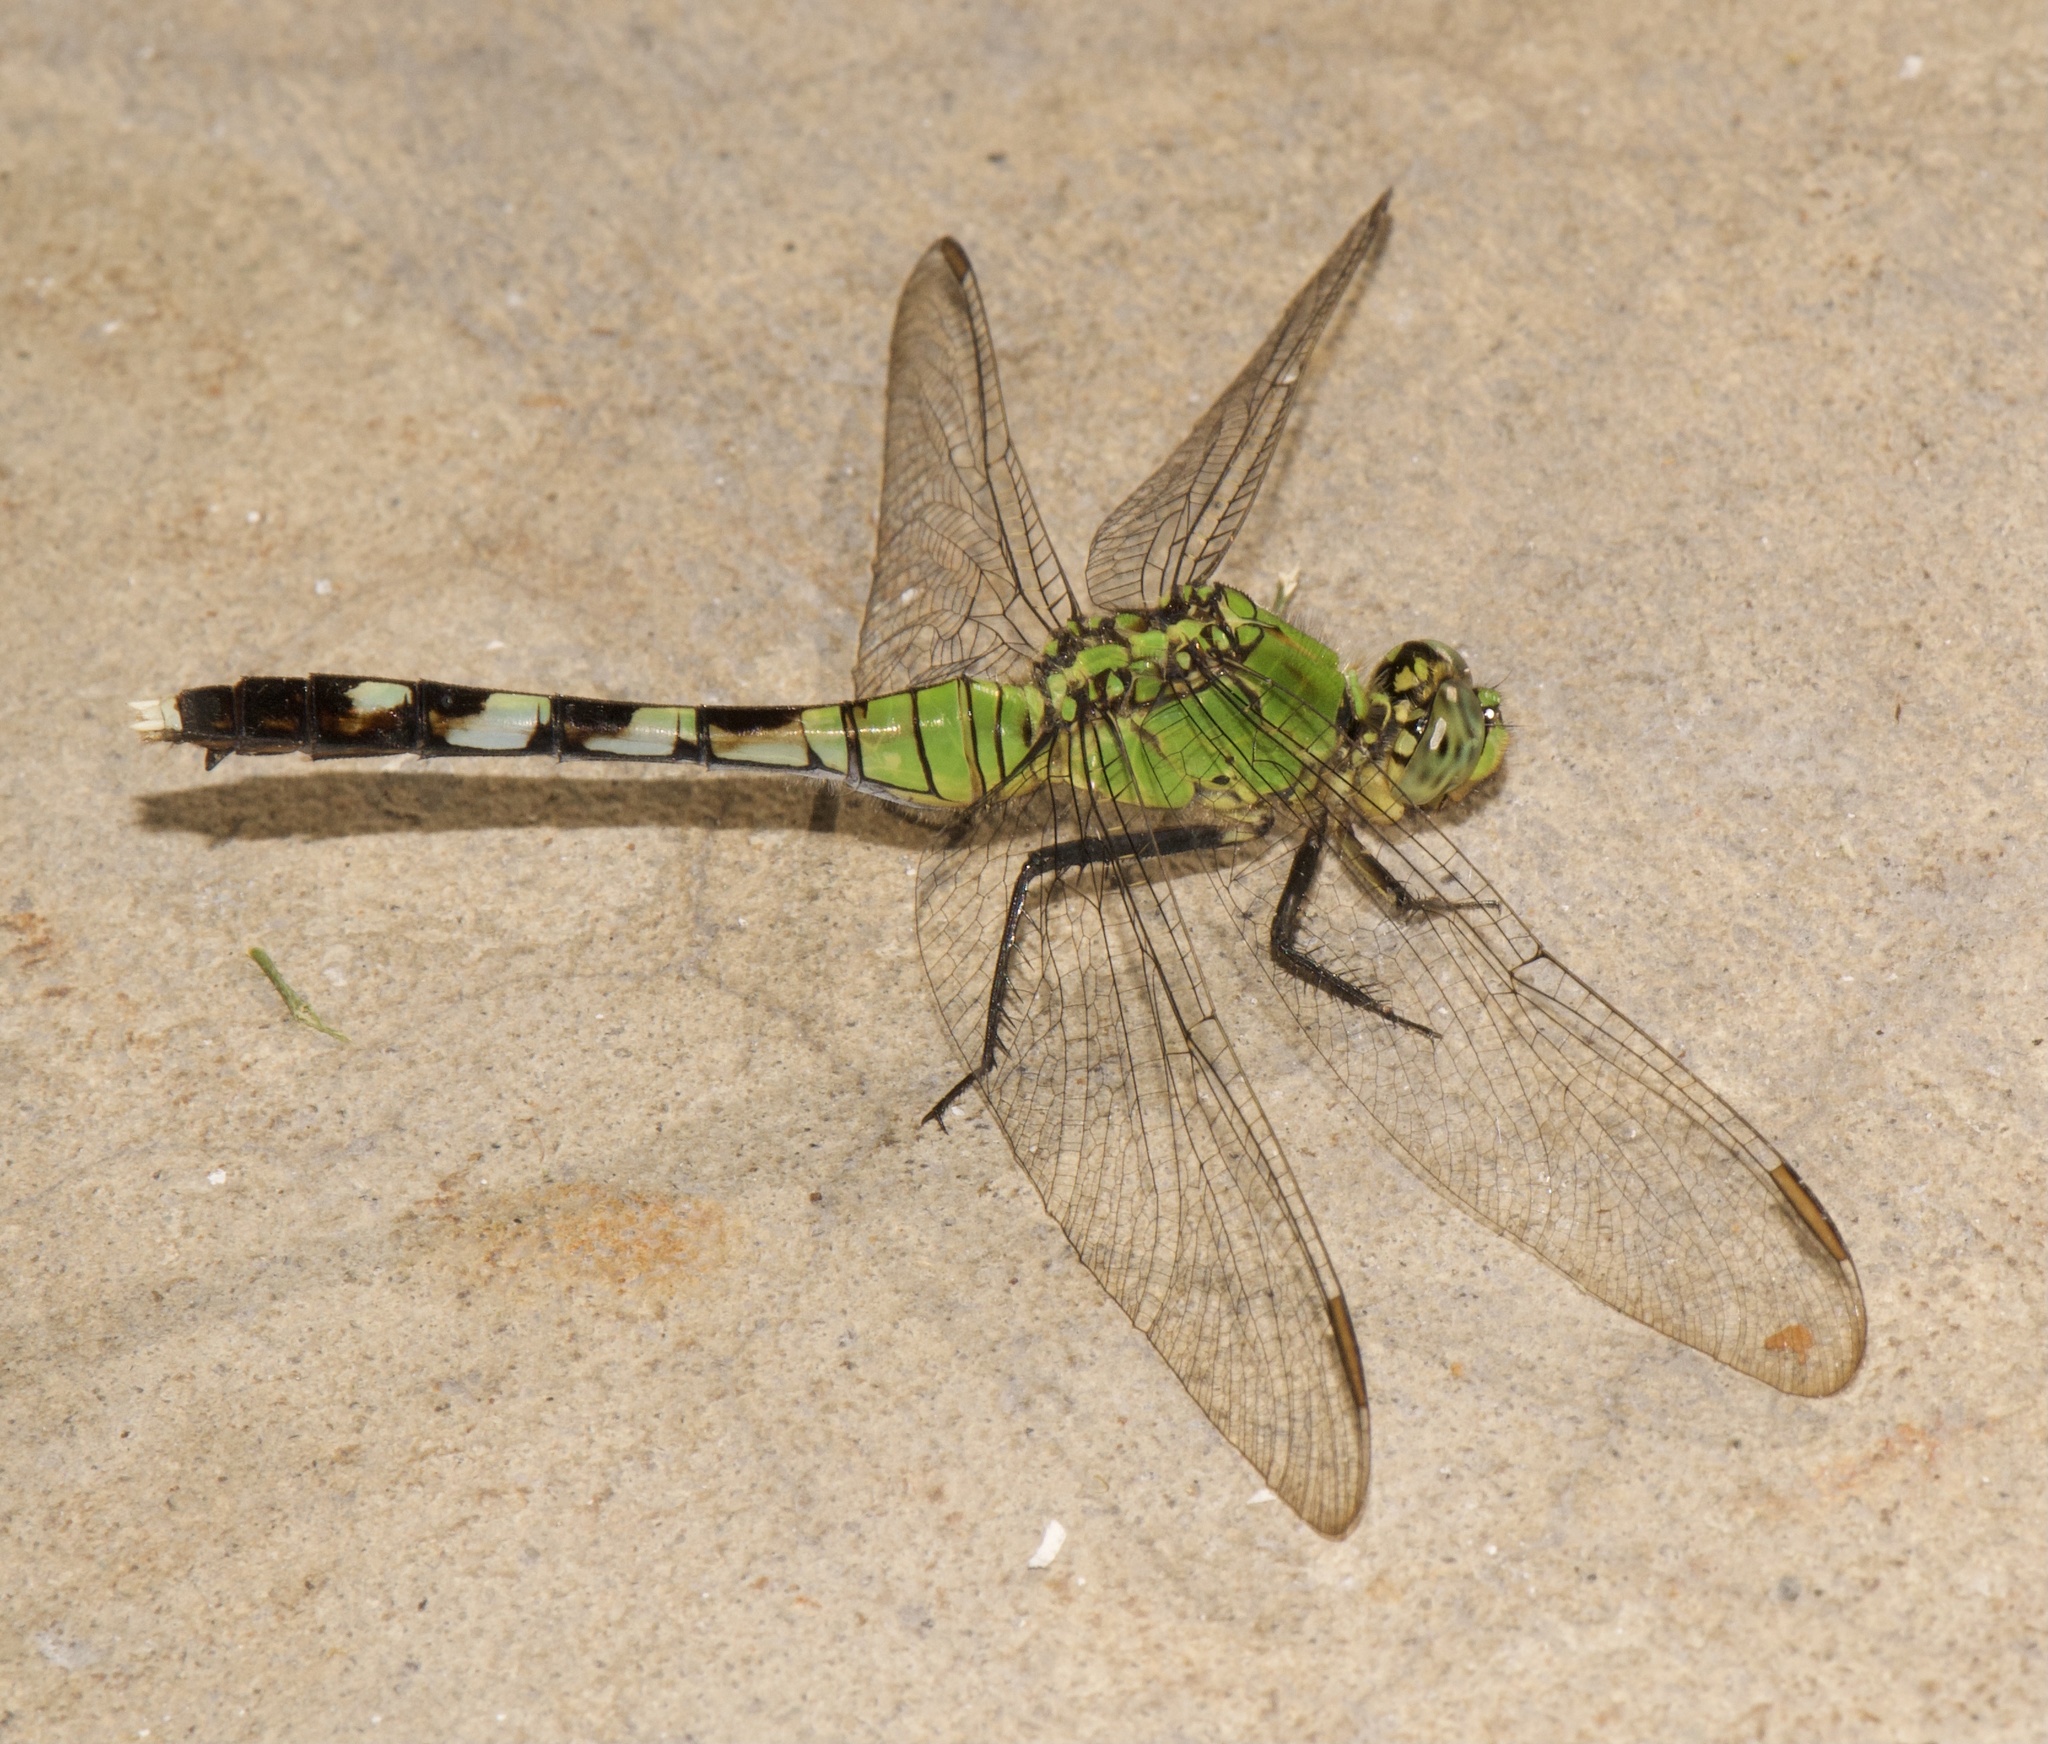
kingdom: Animalia
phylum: Arthropoda
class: Insecta
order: Odonata
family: Libellulidae
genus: Erythemis
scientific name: Erythemis simplicicollis
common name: Eastern pondhawk
